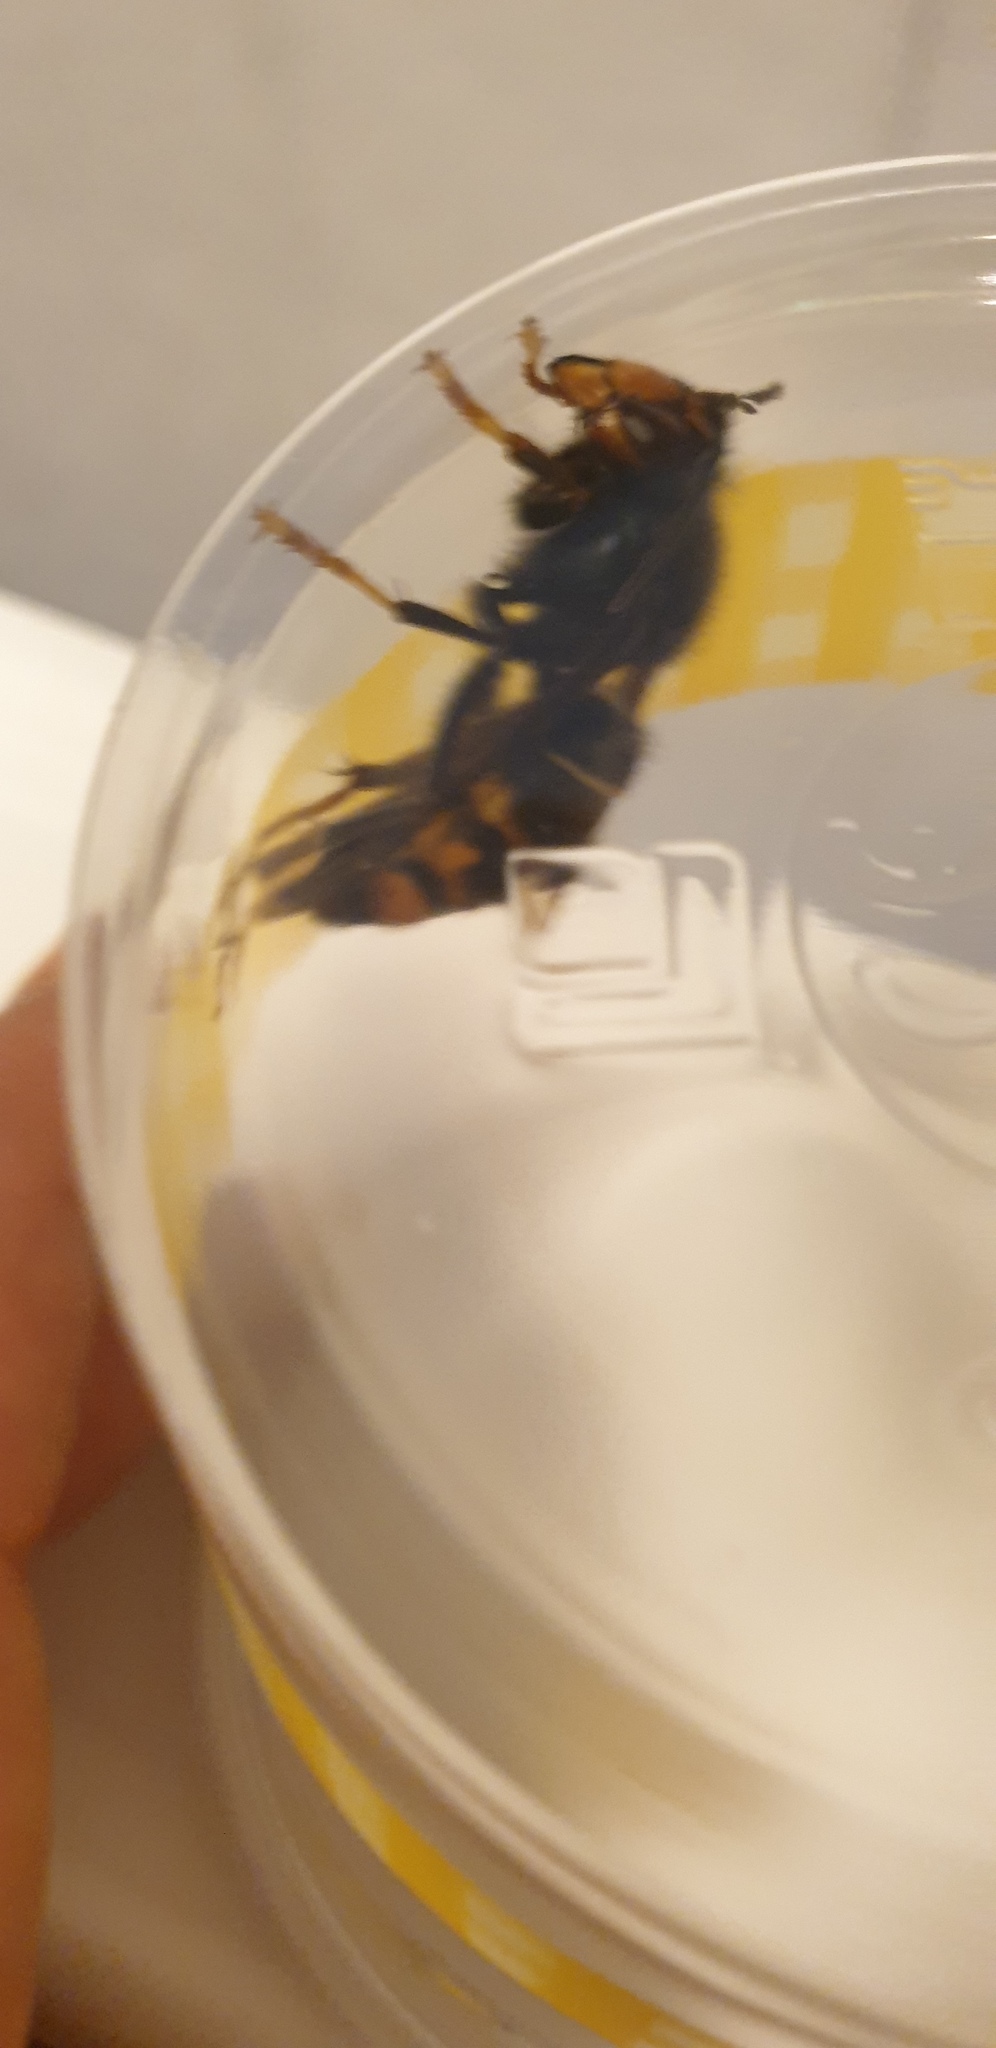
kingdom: Animalia
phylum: Arthropoda
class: Insecta
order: Hymenoptera
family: Vespidae
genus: Vespa
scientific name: Vespa velutina
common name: Asian hornet
